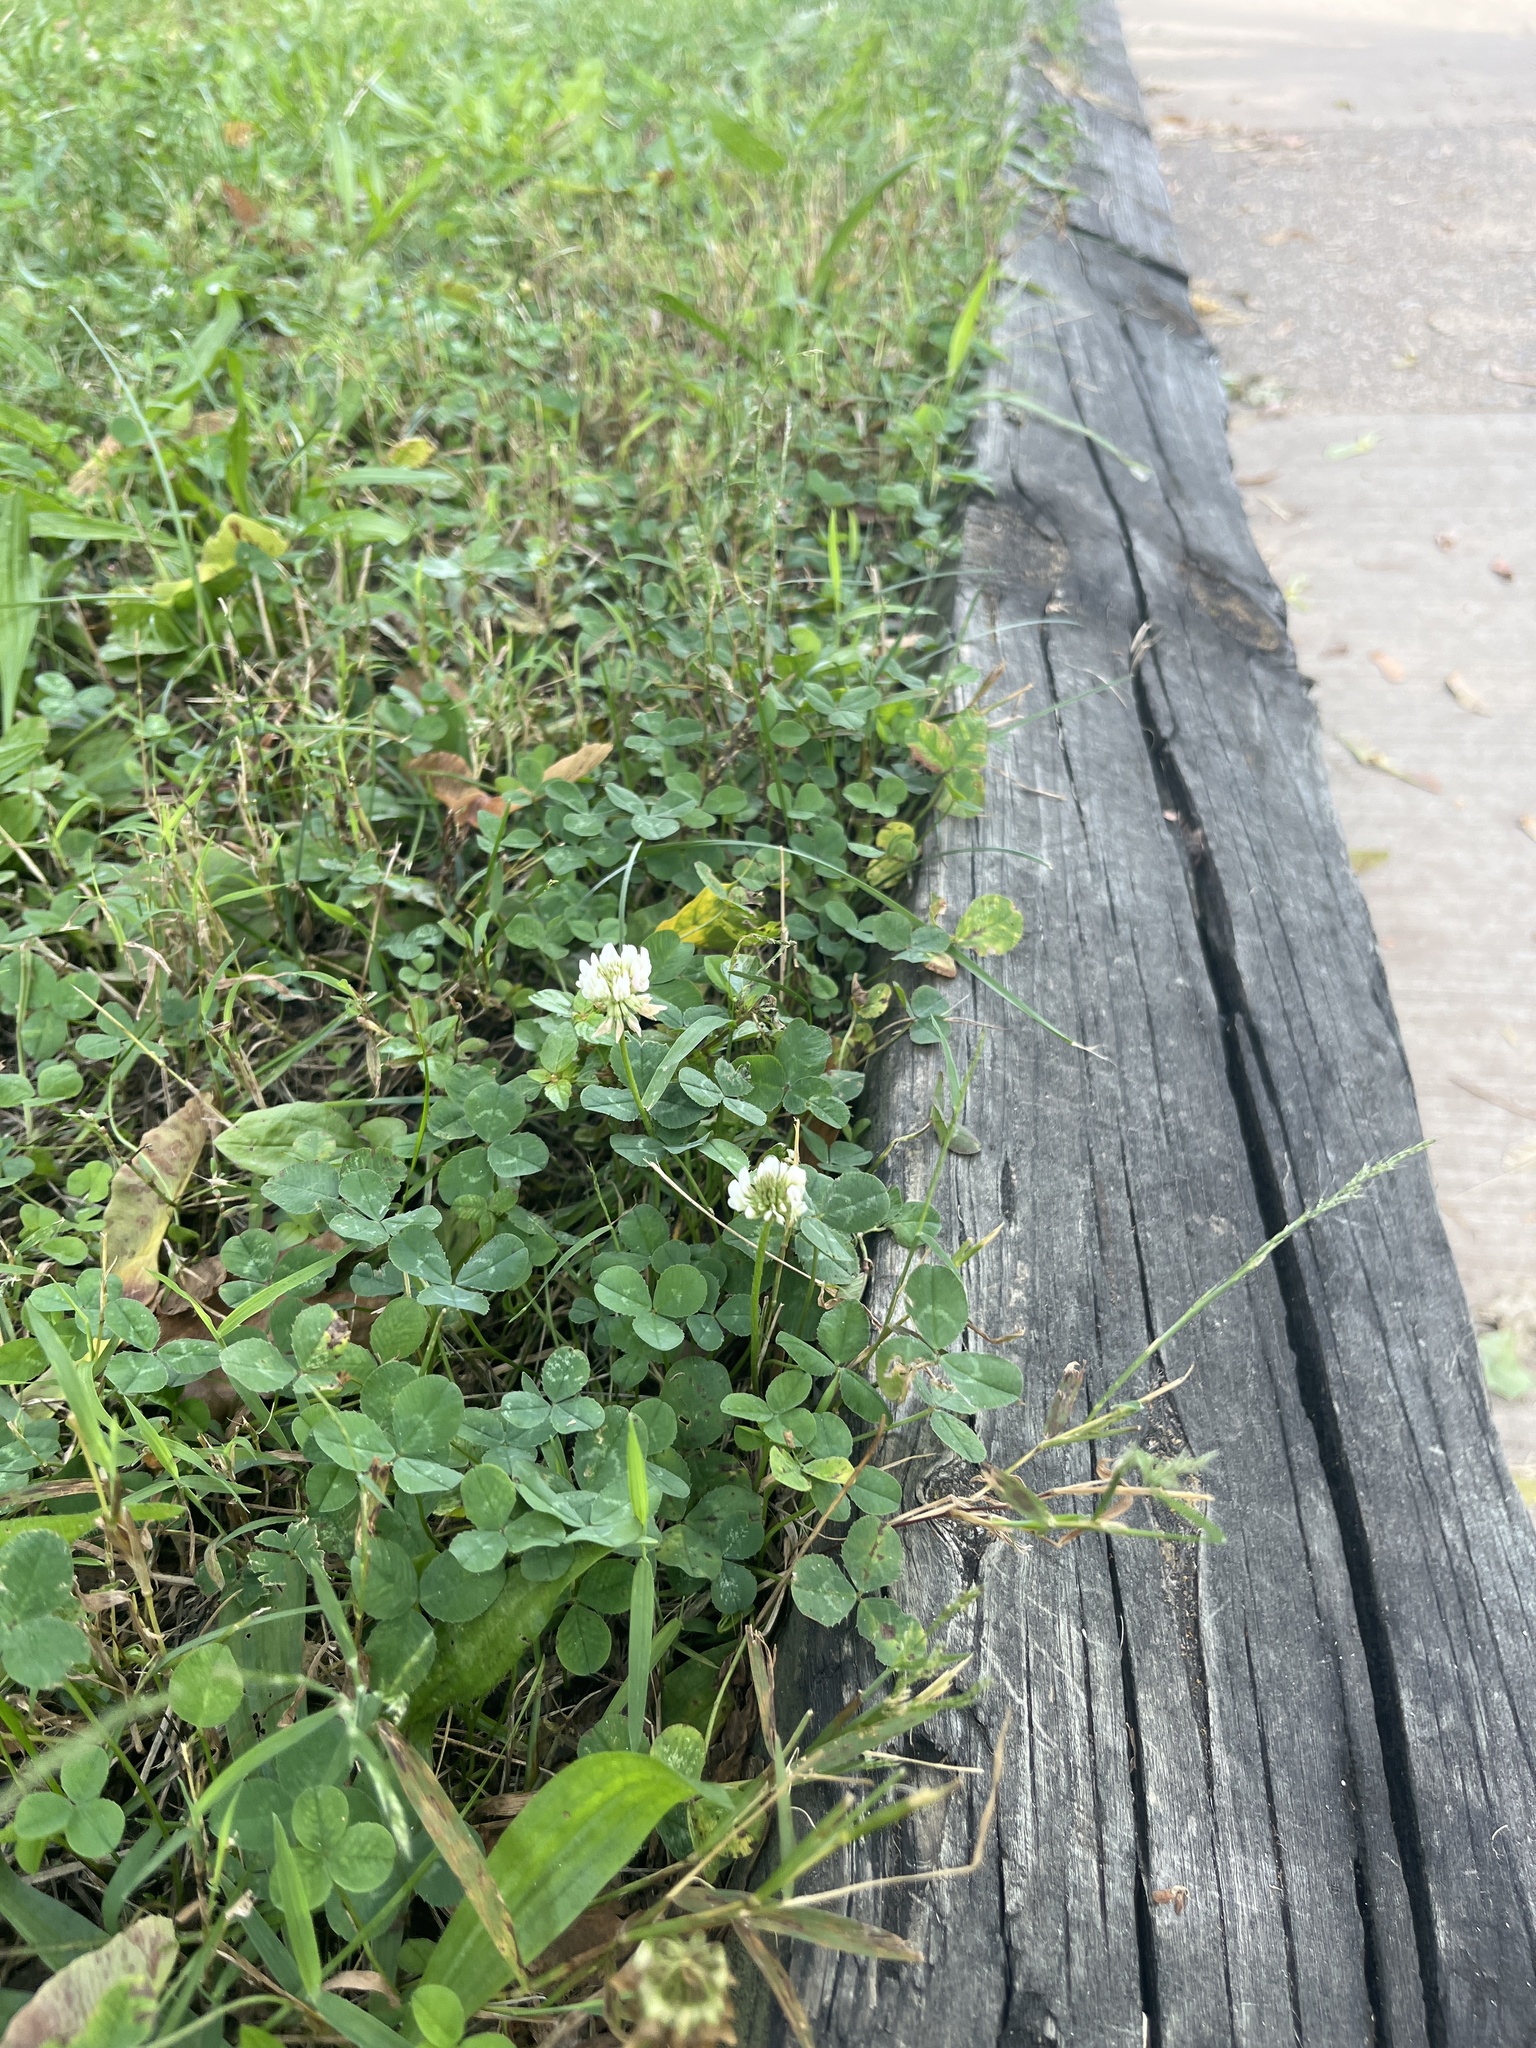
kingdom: Plantae
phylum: Tracheophyta
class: Magnoliopsida
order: Fabales
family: Fabaceae
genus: Trifolium
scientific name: Trifolium repens
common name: White clover
